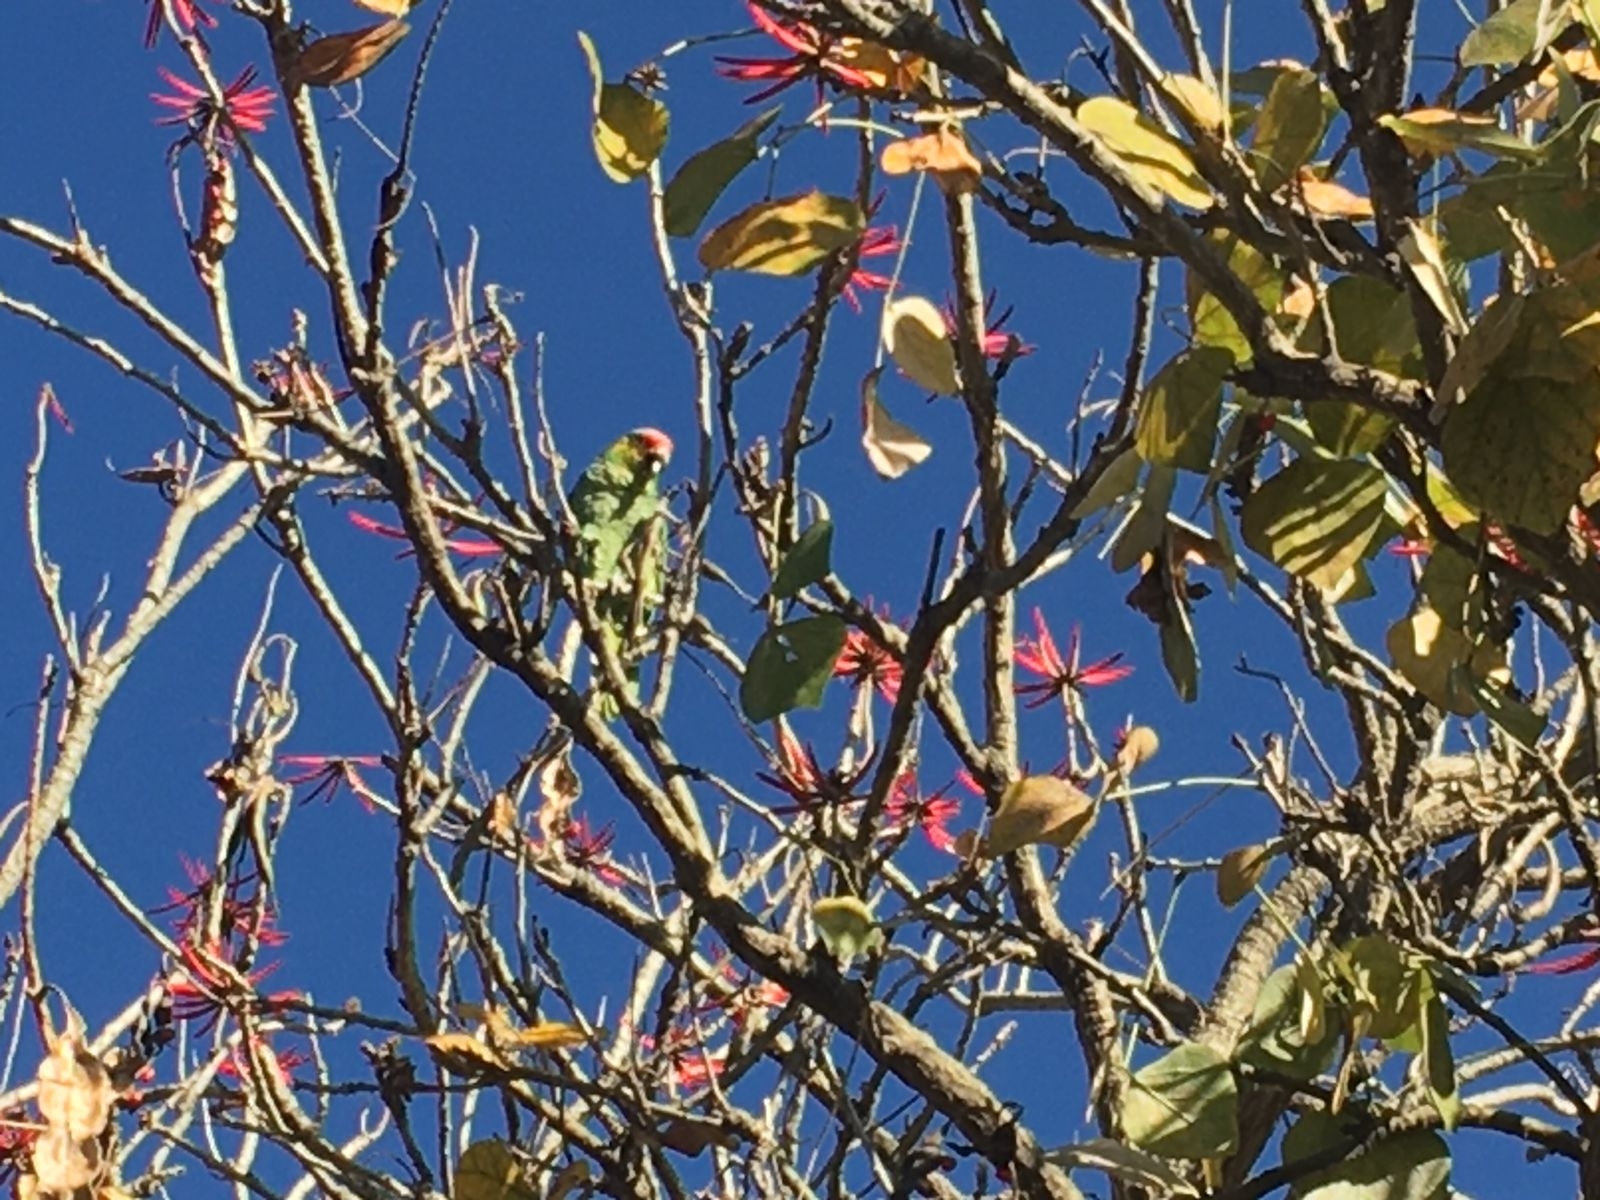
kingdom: Animalia
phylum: Chordata
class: Aves
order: Psittaciformes
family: Psittacidae
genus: Amazona
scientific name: Amazona autumnalis
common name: Red-lored amazon
